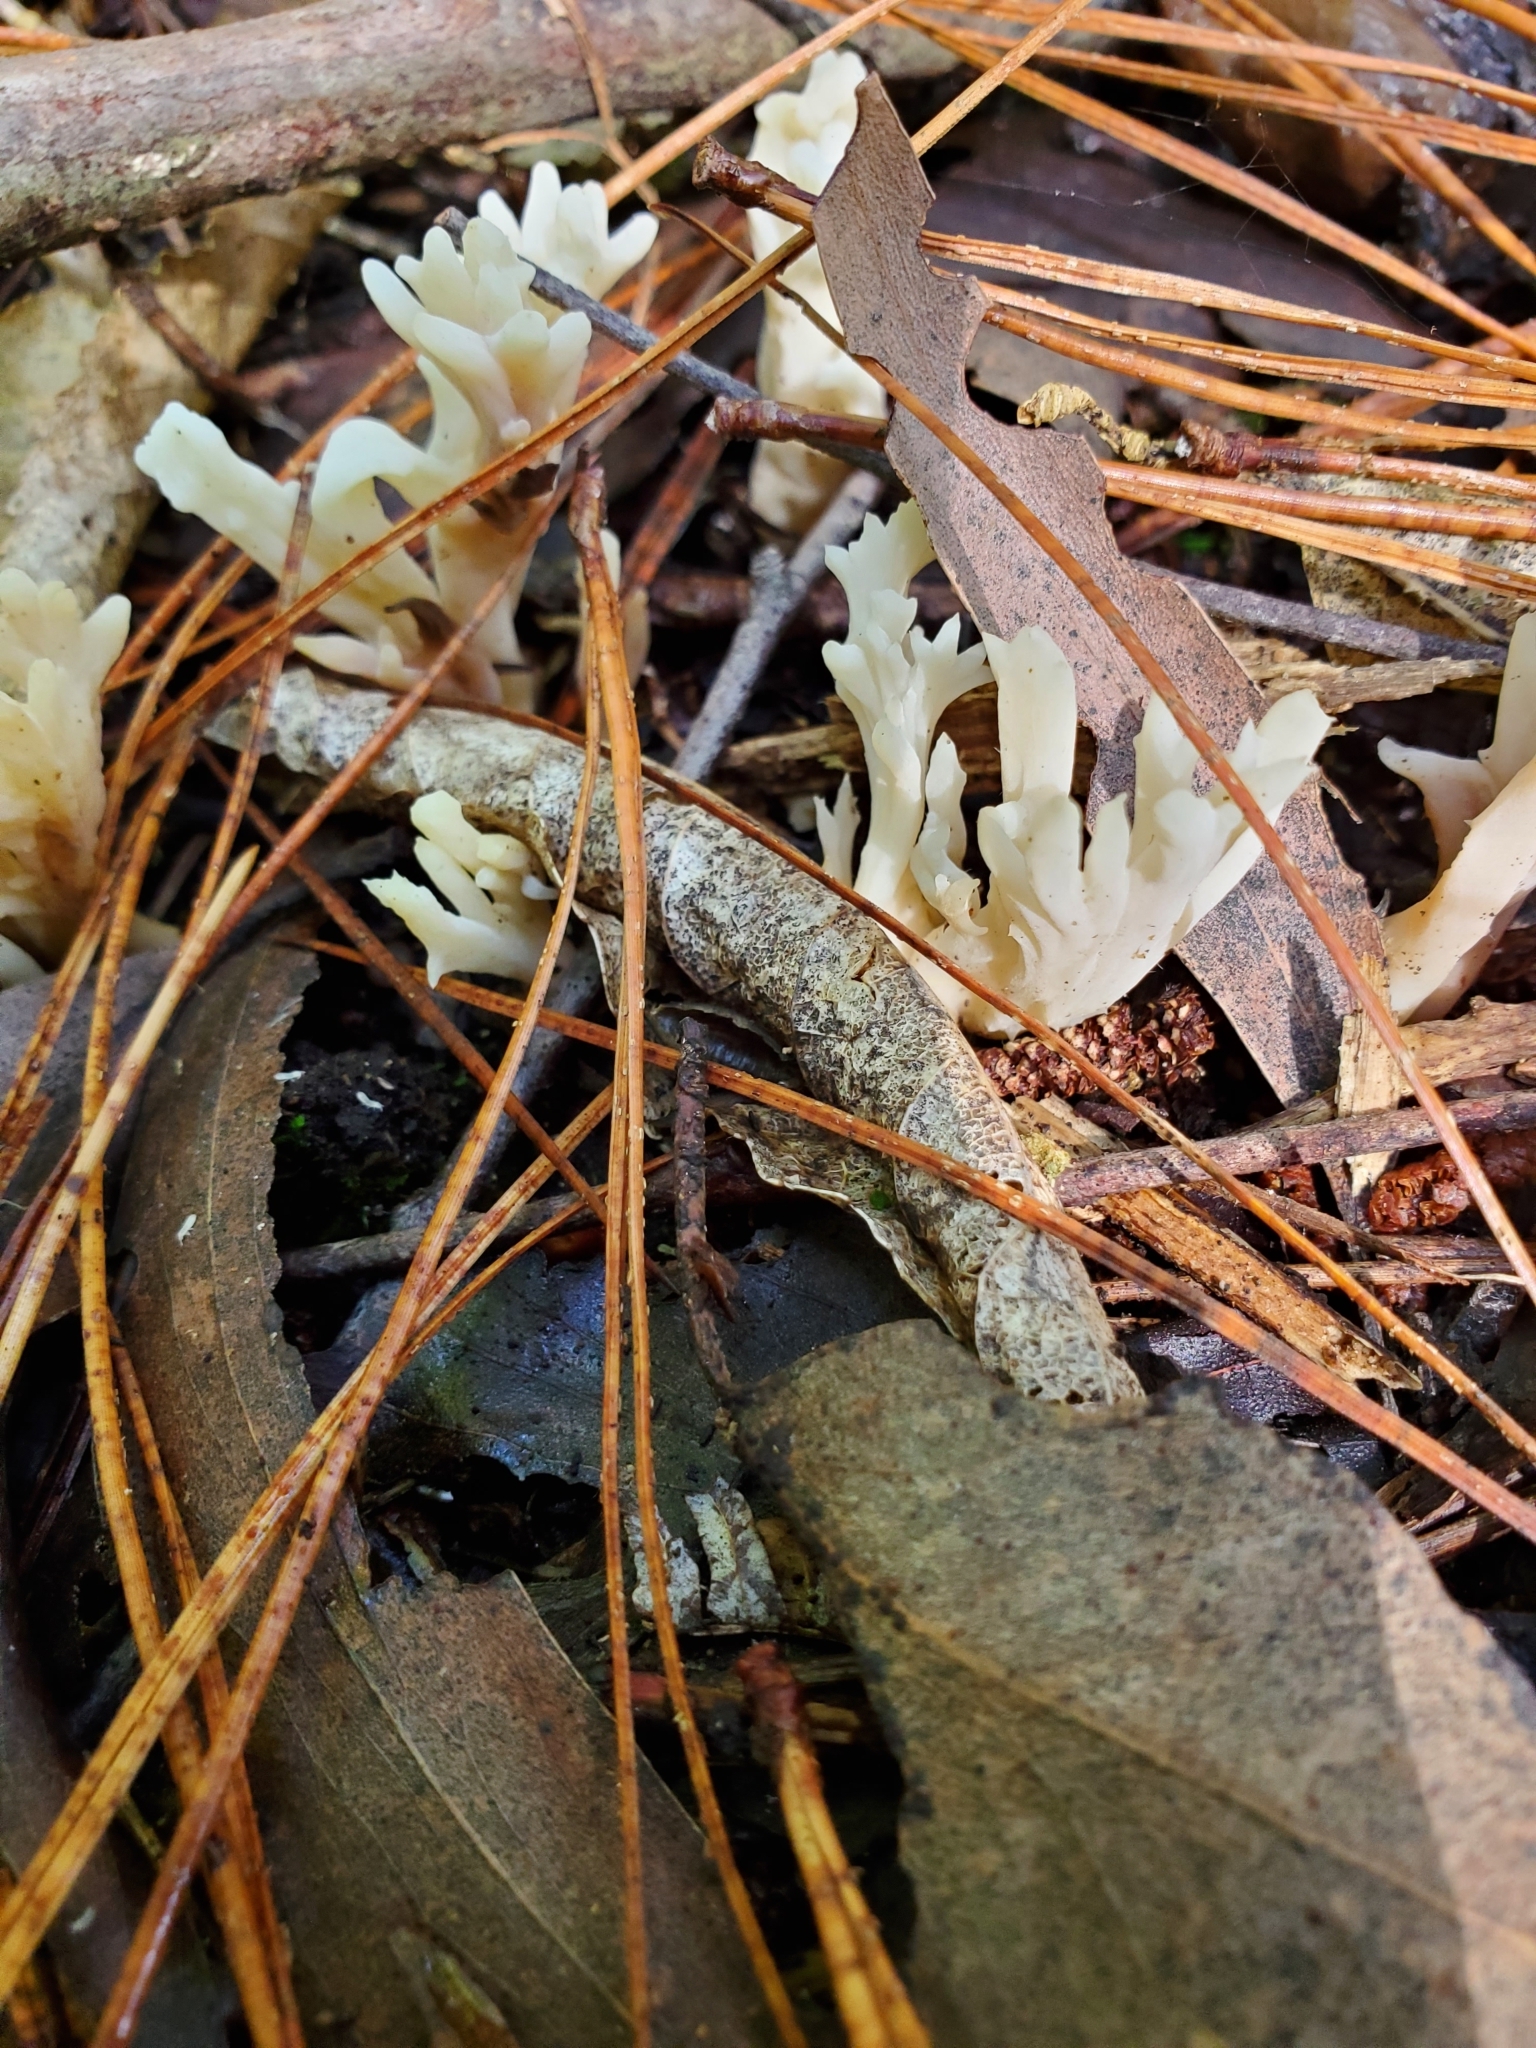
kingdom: Fungi
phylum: Basidiomycota
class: Agaricomycetes
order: Cantharellales
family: Hydnaceae
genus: Clavulina
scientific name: Clavulina rugosa
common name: Wrinkled club
